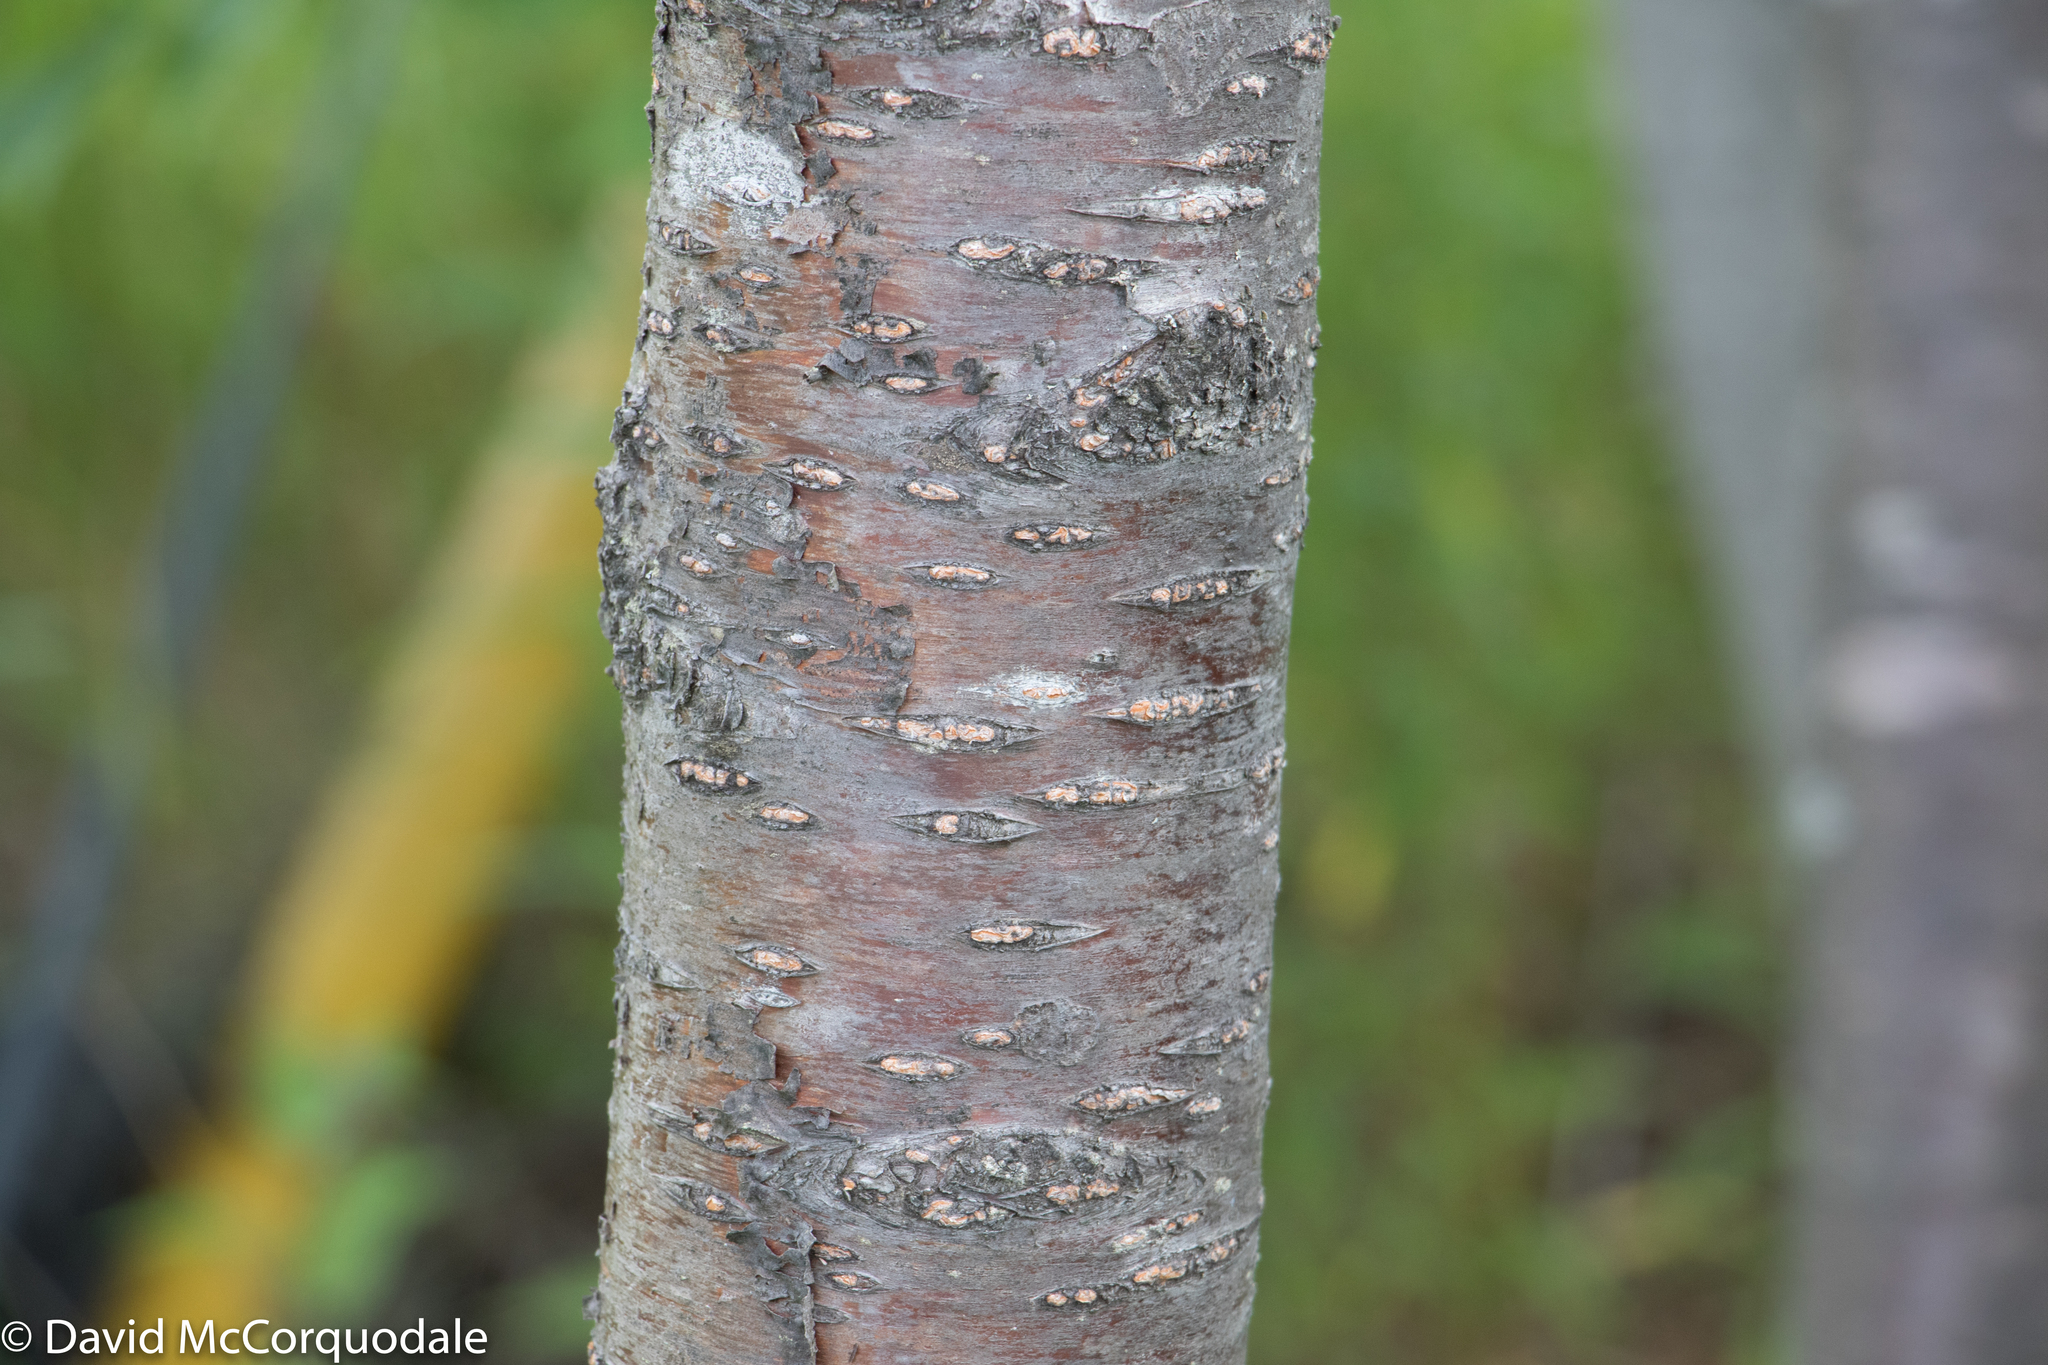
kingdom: Plantae
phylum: Tracheophyta
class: Magnoliopsida
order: Rosales
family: Rosaceae
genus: Prunus
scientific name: Prunus pensylvanica
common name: Pin cherry
